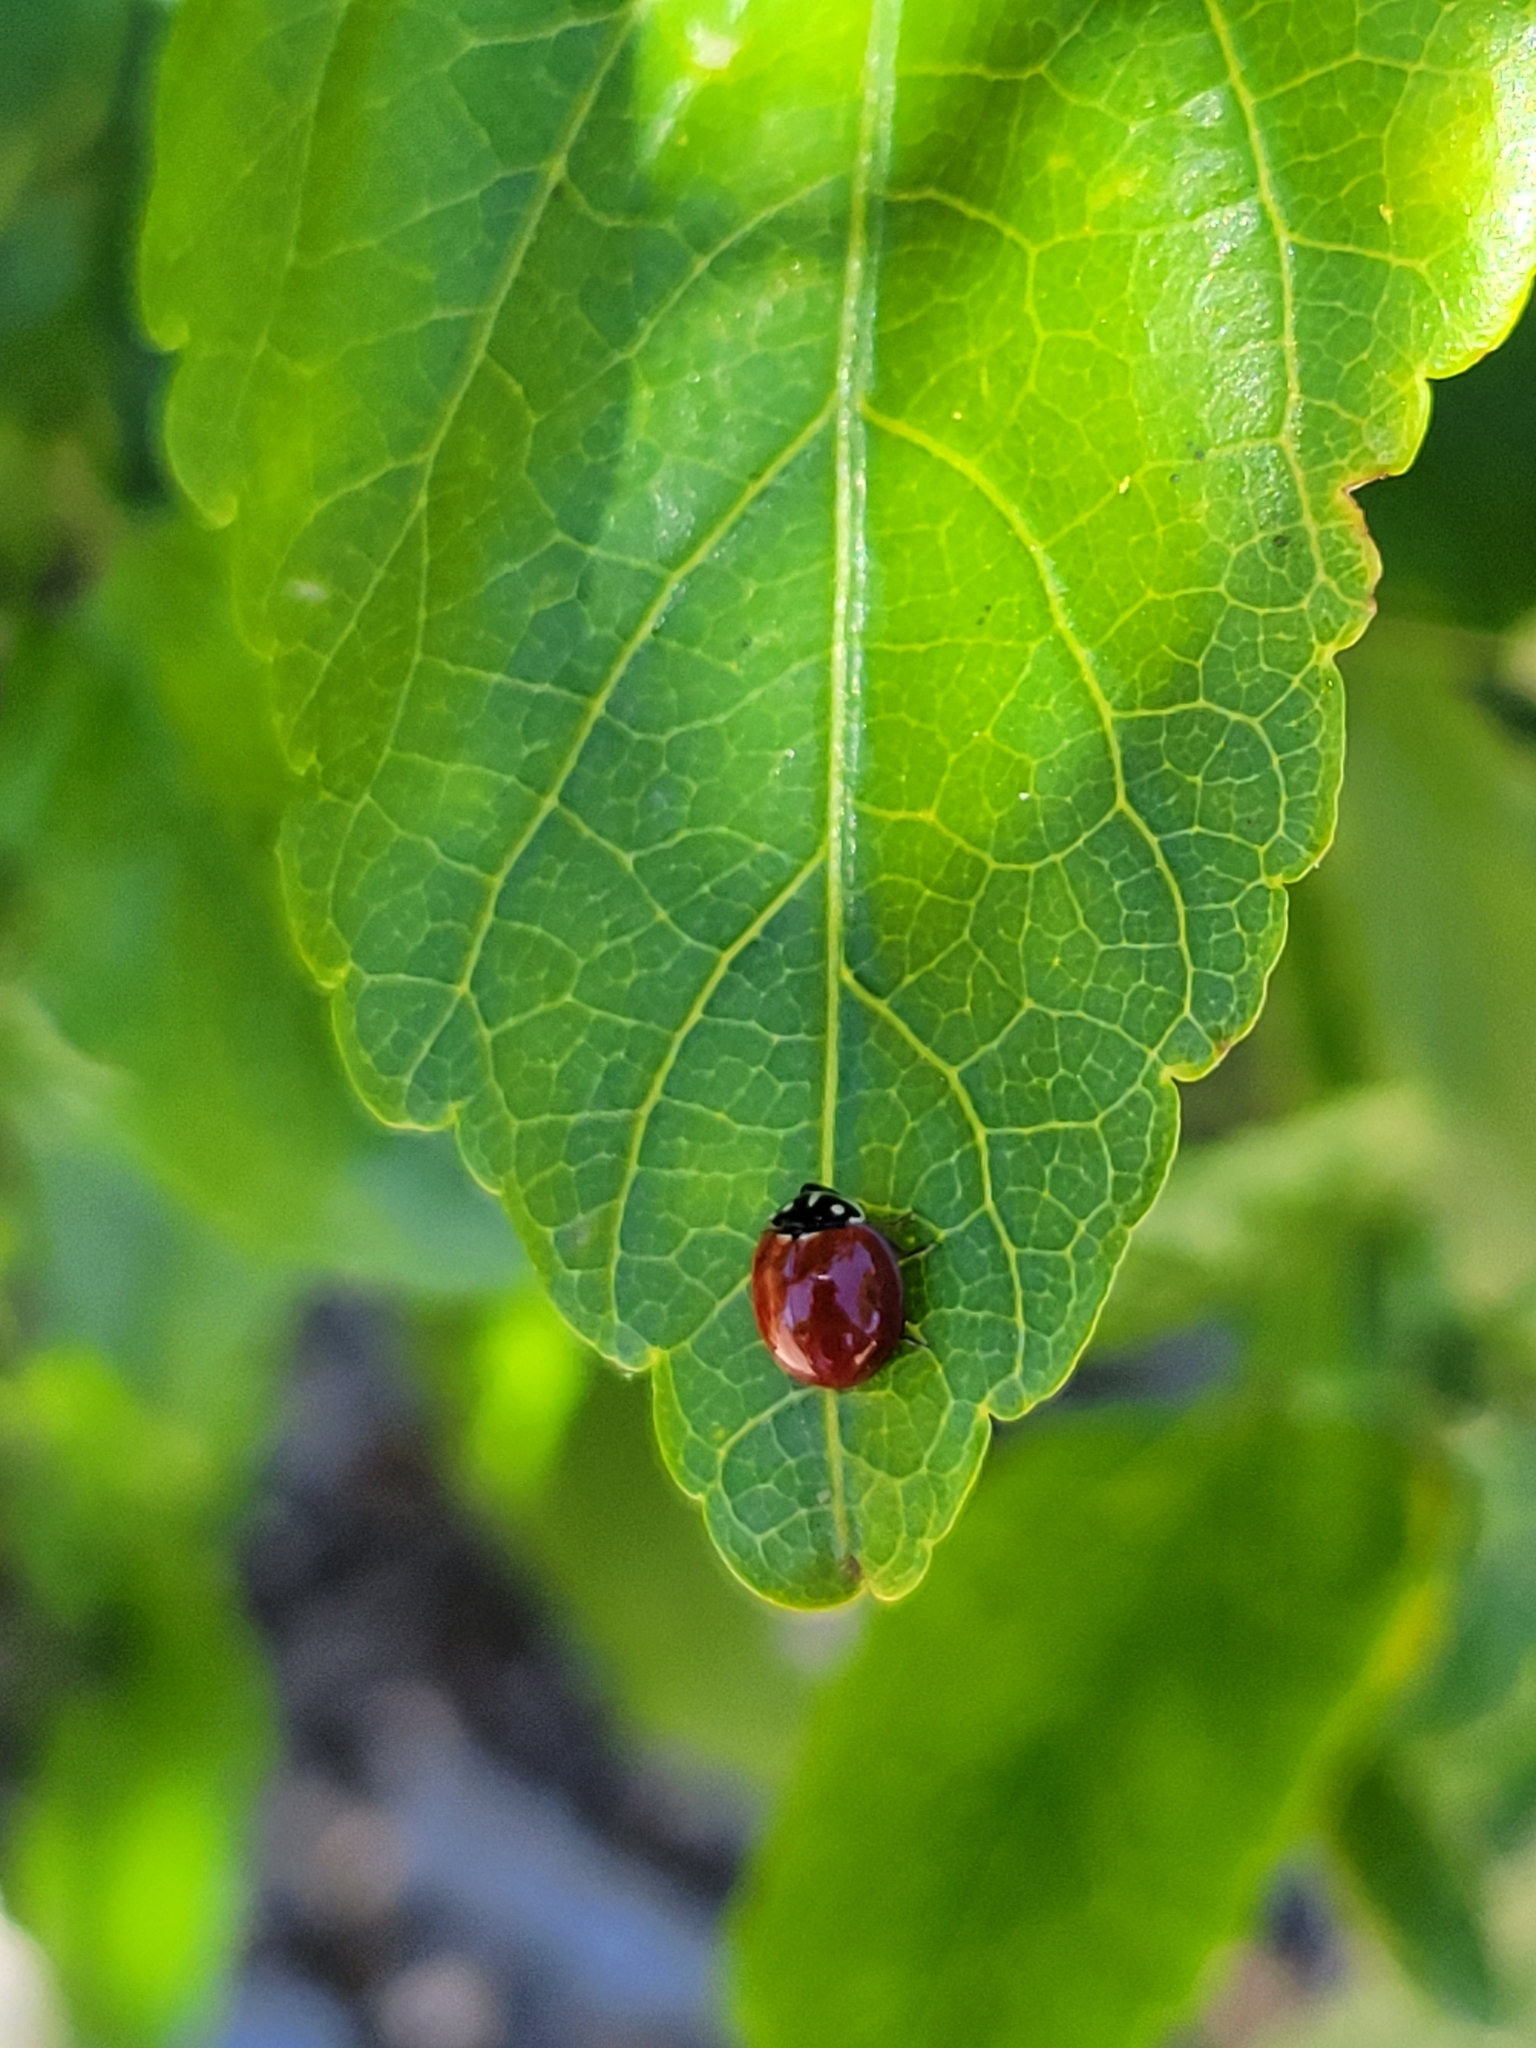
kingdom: Animalia
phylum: Arthropoda
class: Insecta
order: Coleoptera
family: Coccinellidae
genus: Cycloneda
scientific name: Cycloneda sanguinea
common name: Ladybird beetle
